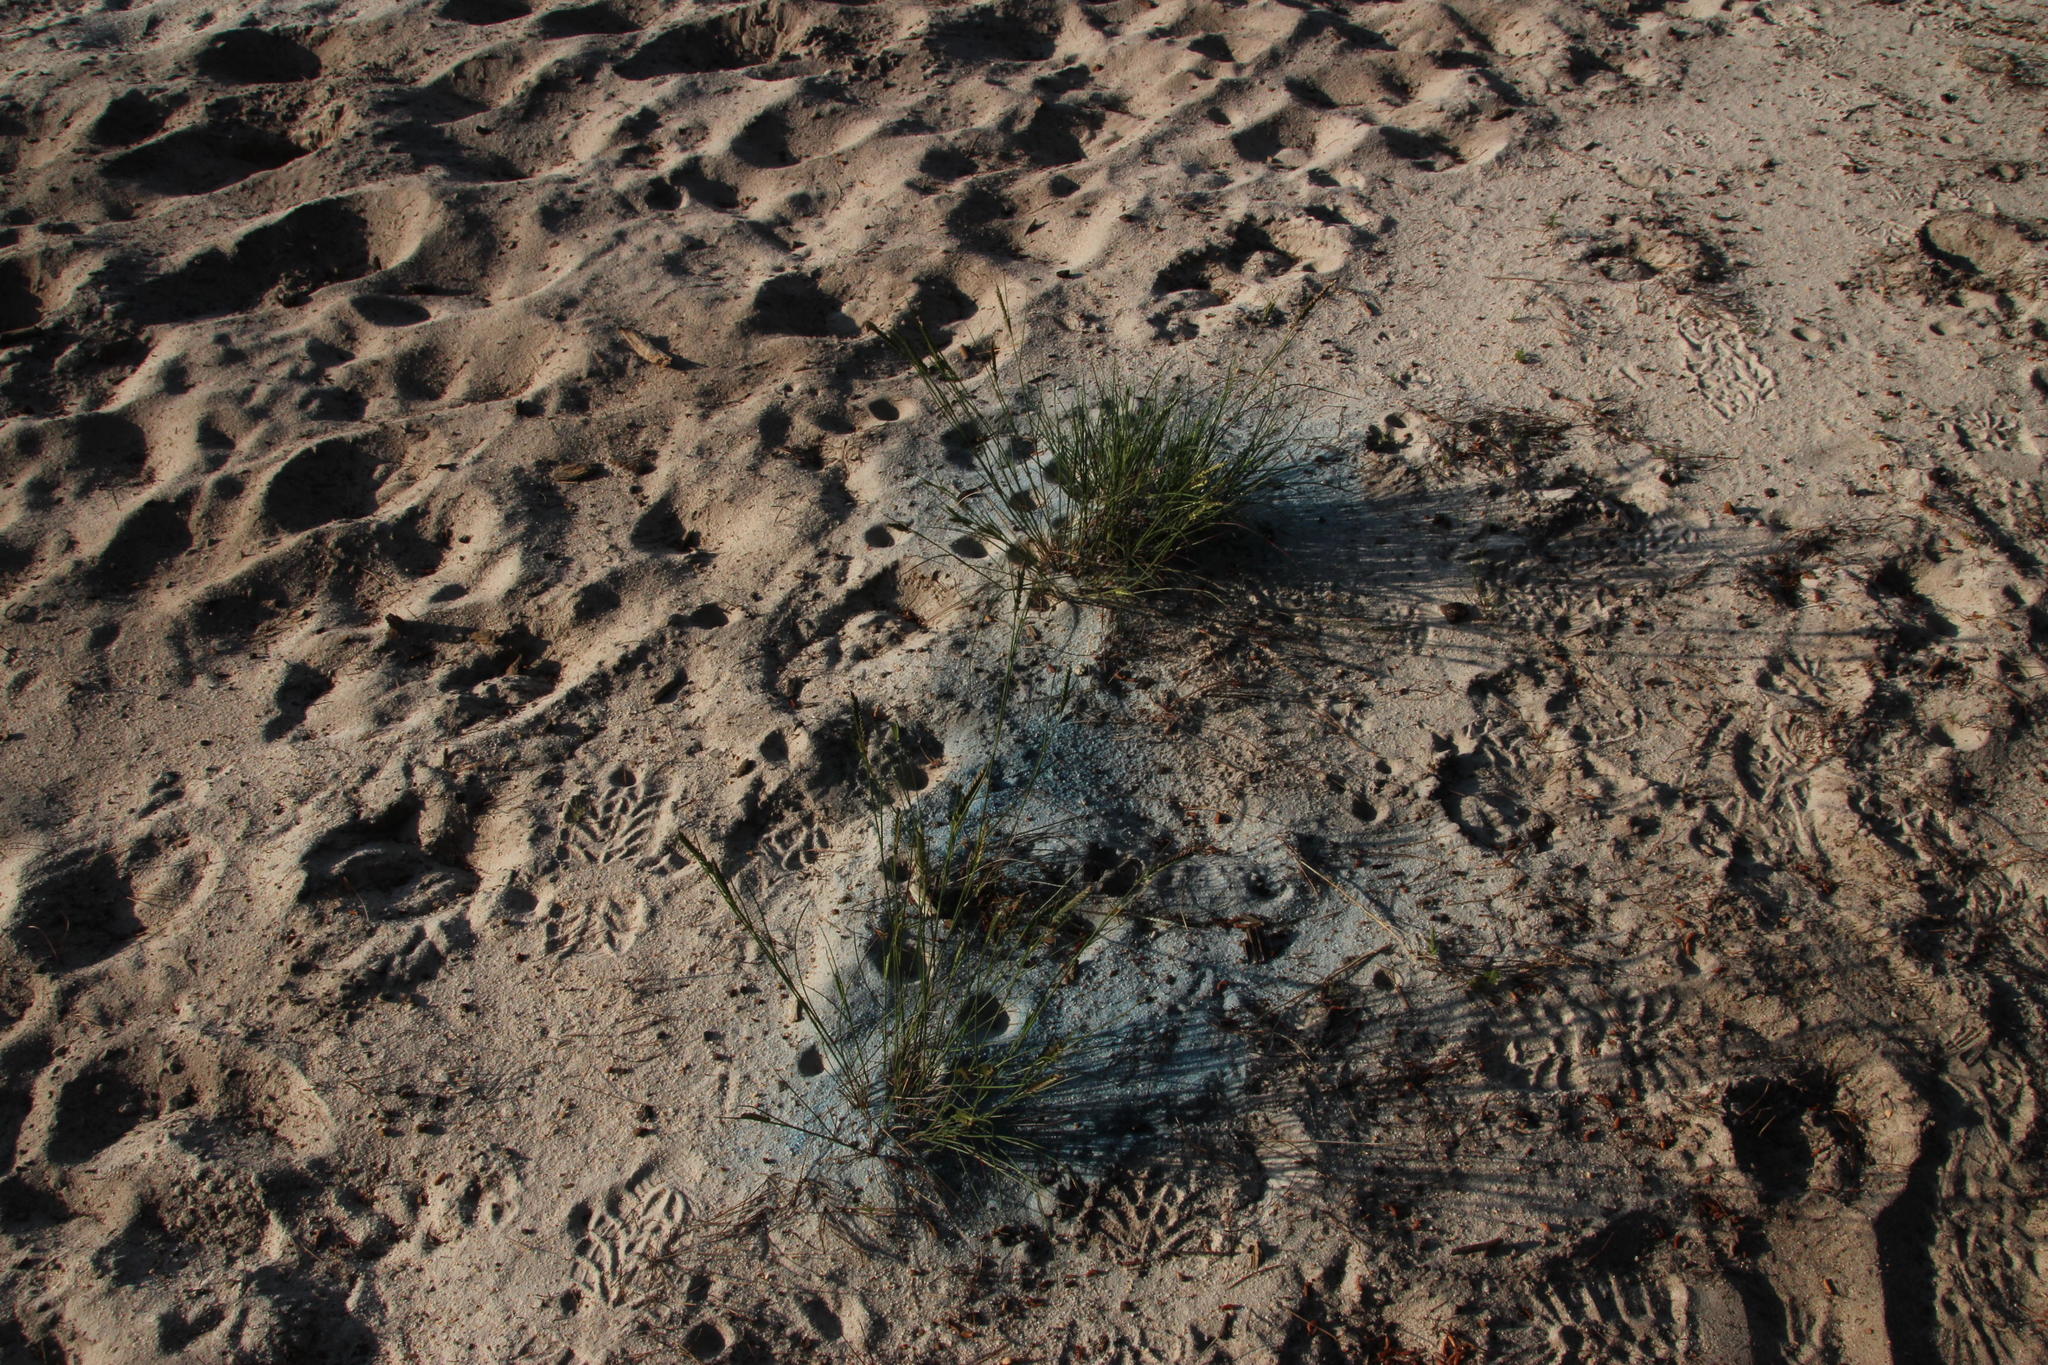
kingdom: Plantae
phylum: Tracheophyta
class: Liliopsida
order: Poales
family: Poaceae
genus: Lolium
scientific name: Lolium perenne
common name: Perennial ryegrass
